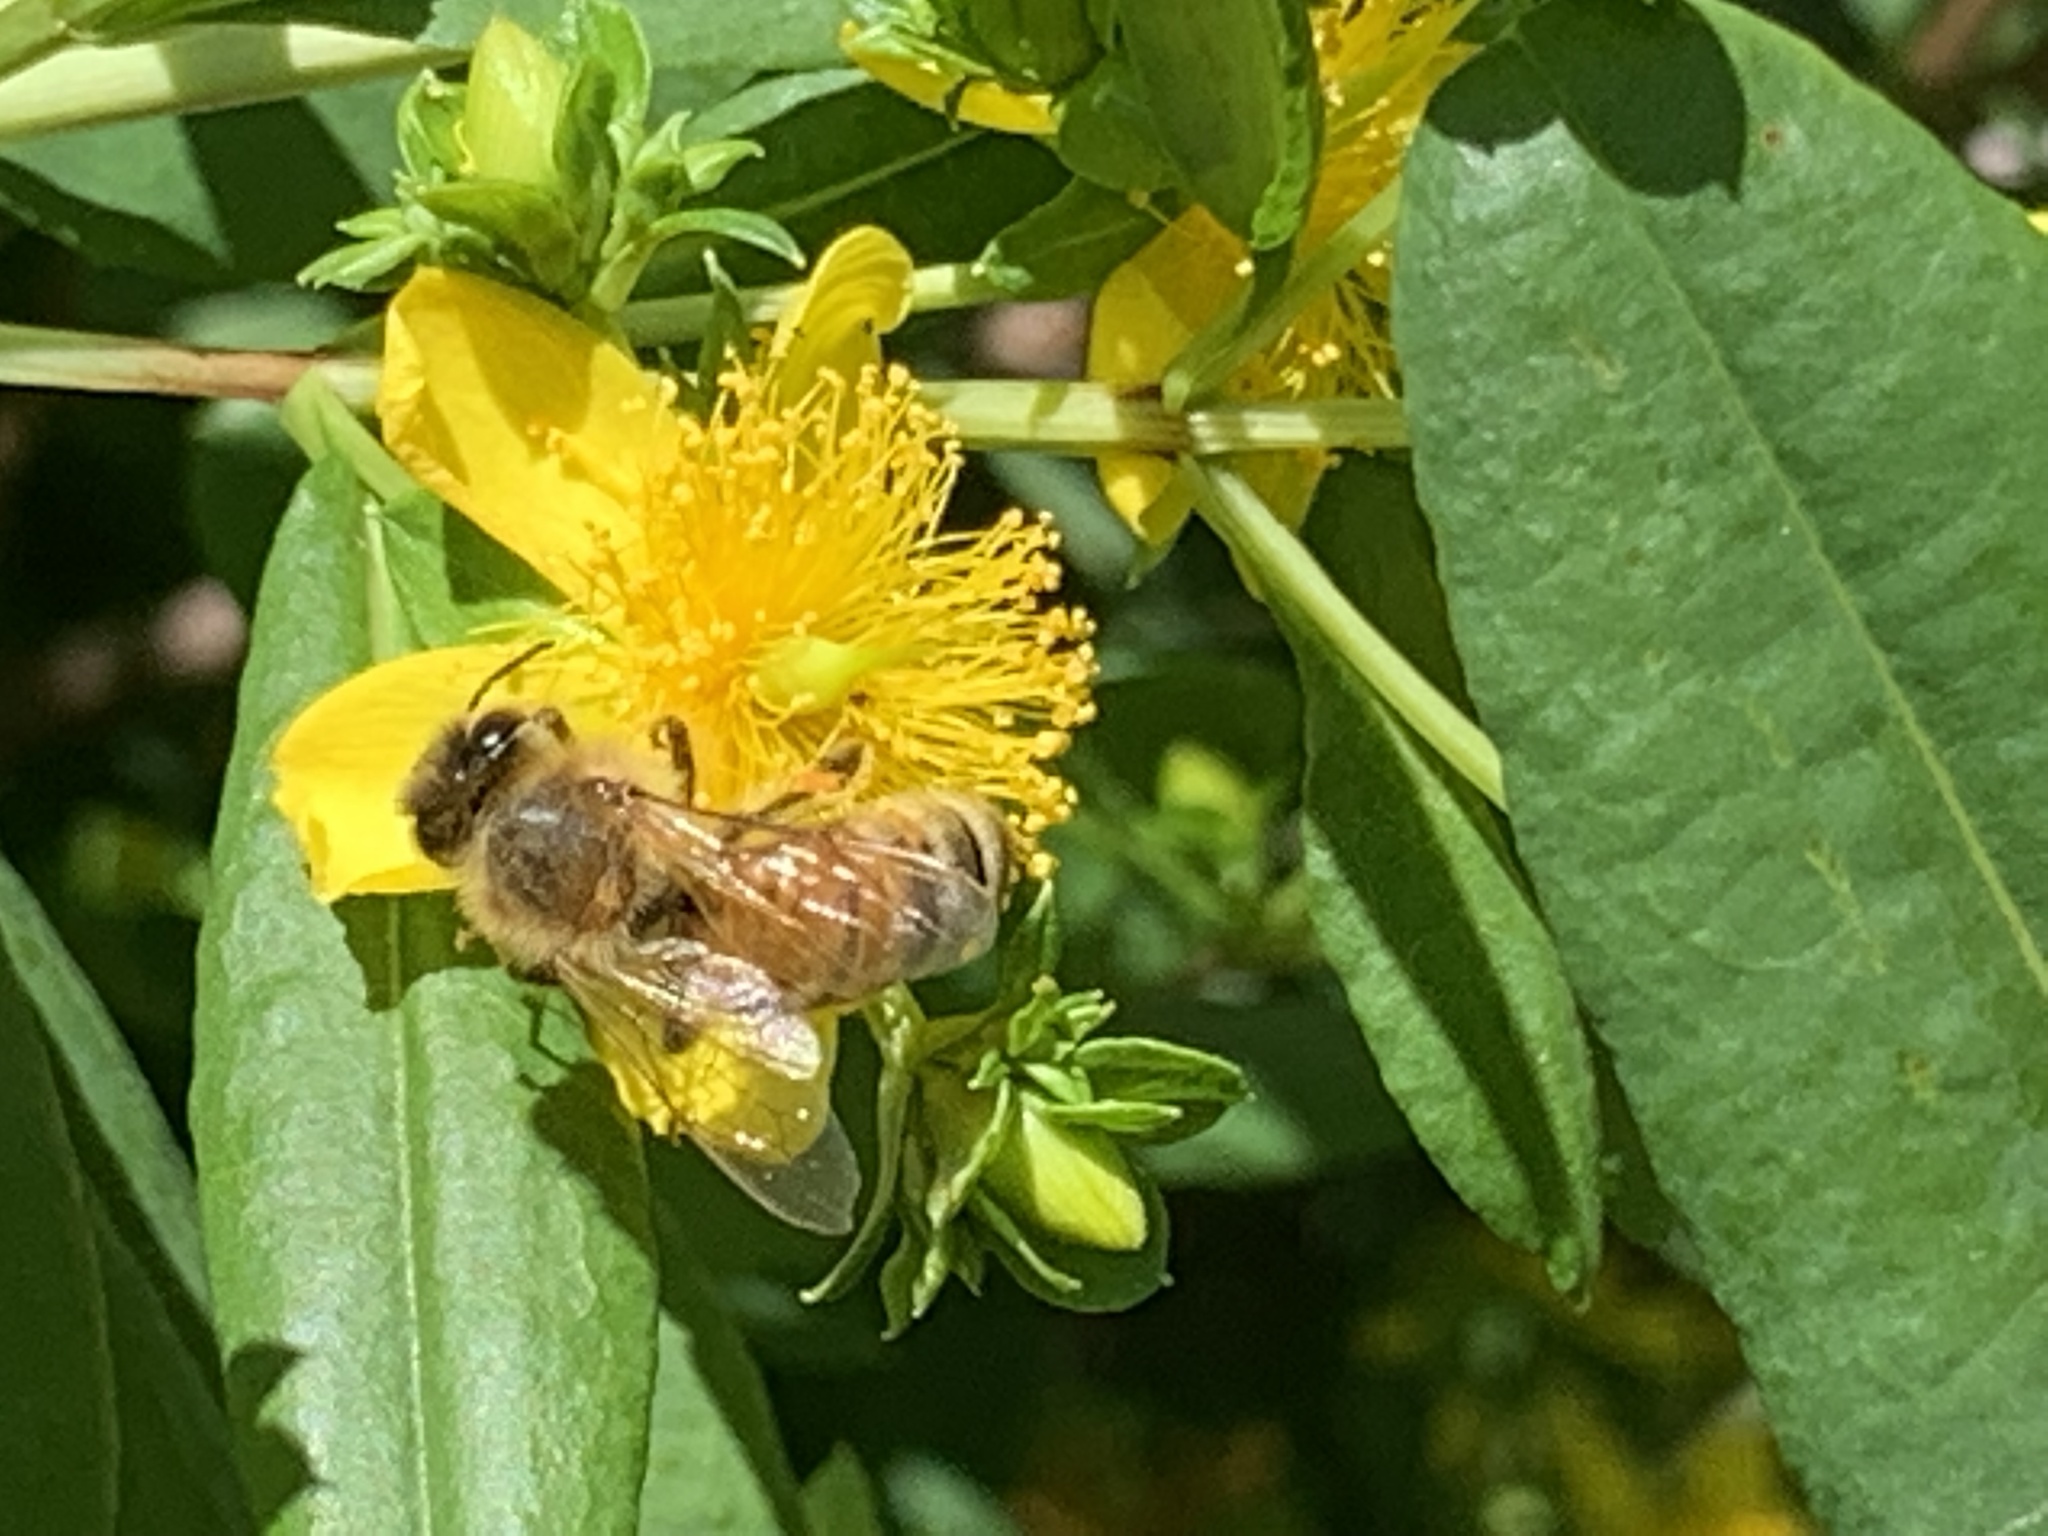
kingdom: Animalia
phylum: Arthropoda
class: Insecta
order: Hymenoptera
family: Apidae
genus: Apis
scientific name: Apis mellifera
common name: Honey bee
